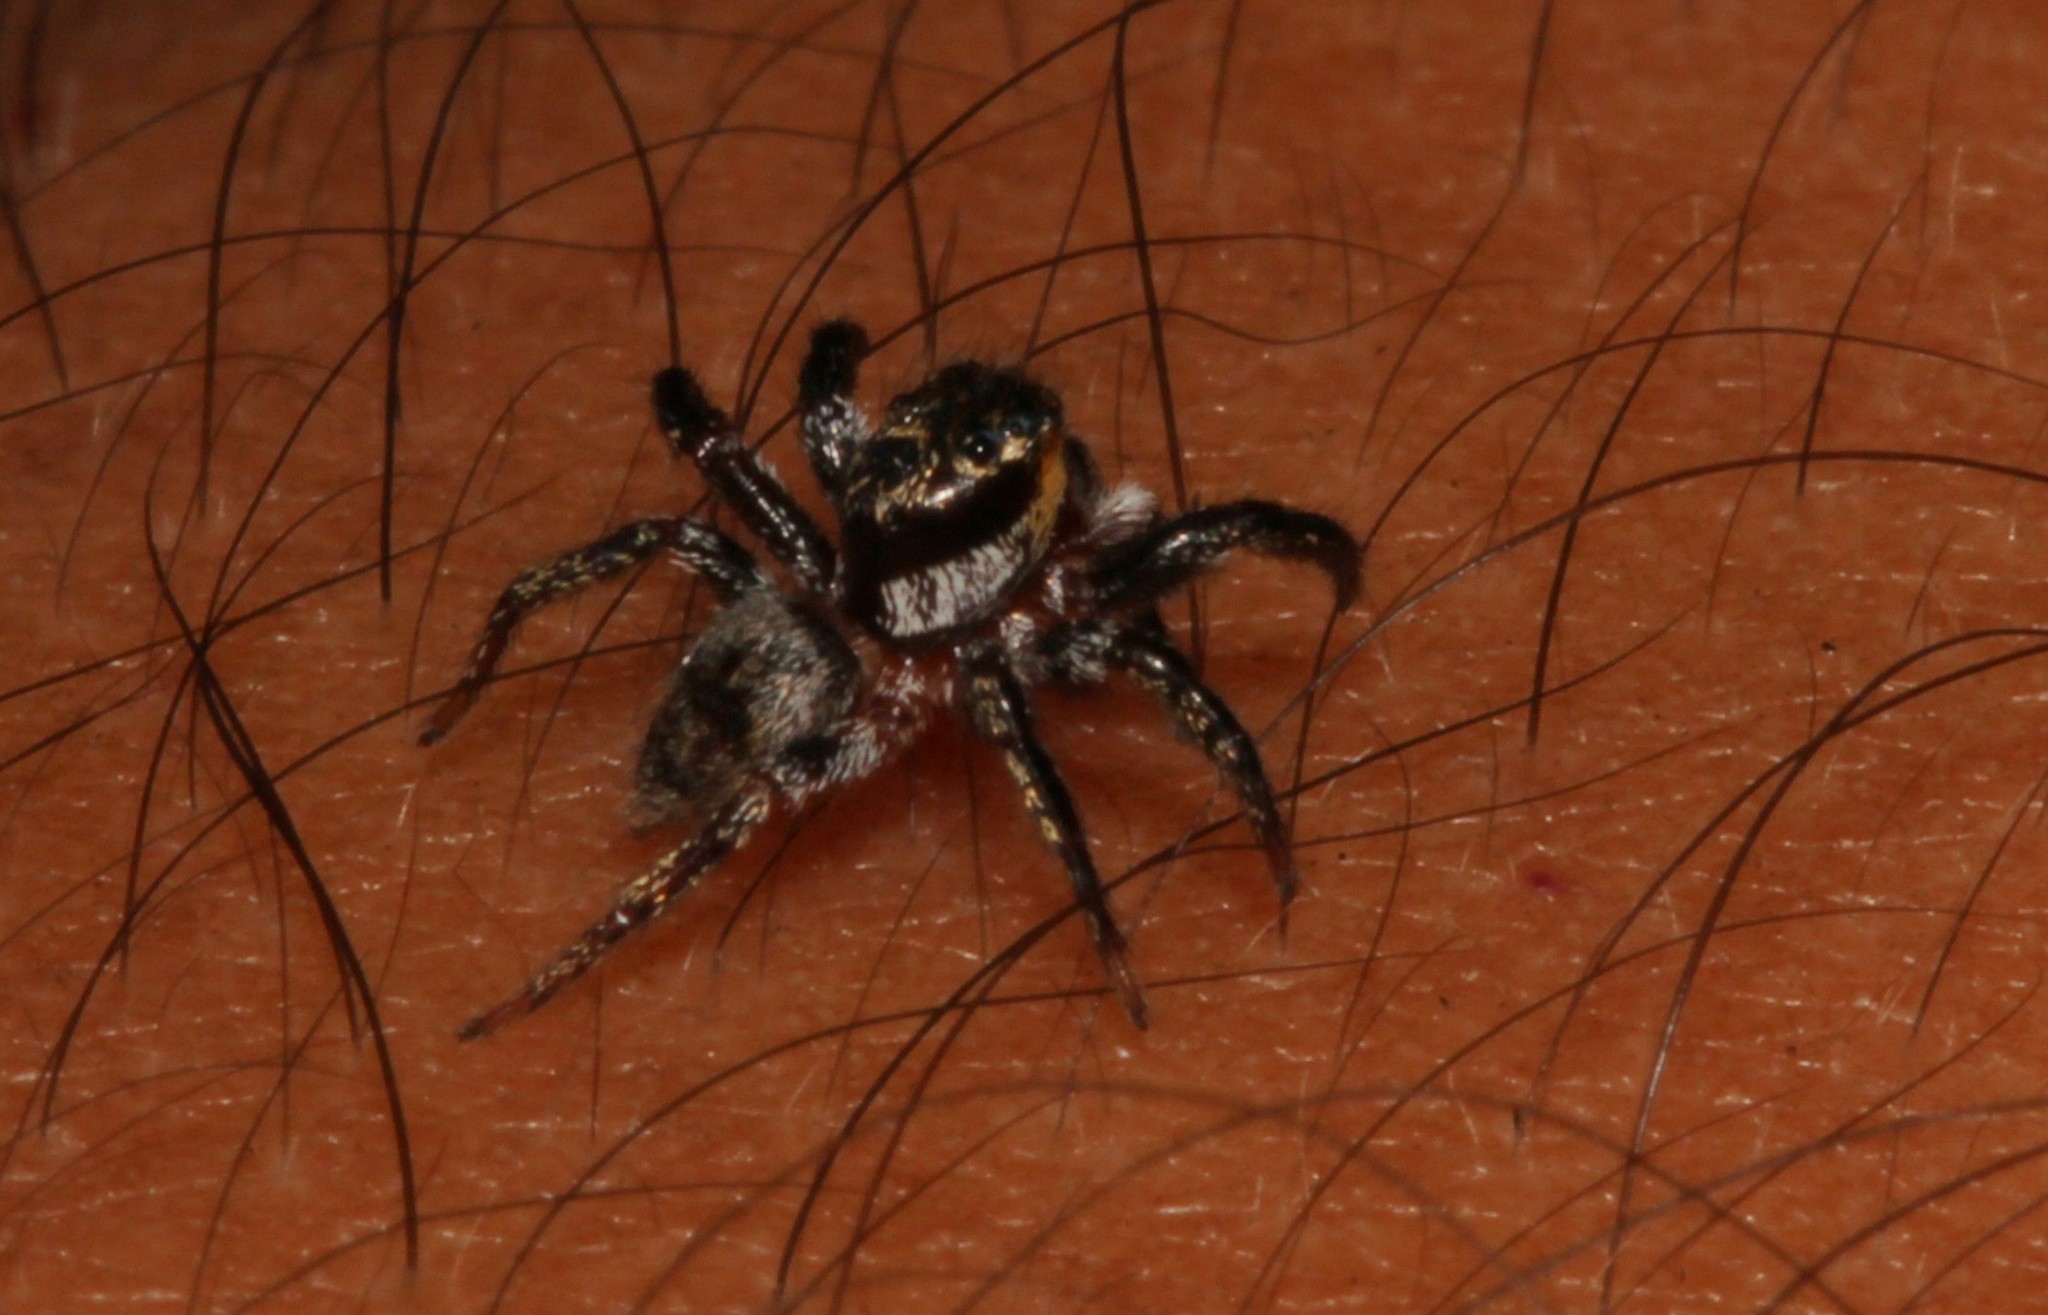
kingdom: Animalia
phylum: Arthropoda
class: Arachnida
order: Araneae
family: Salticidae
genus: Corythalia
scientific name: Corythalia conferta
